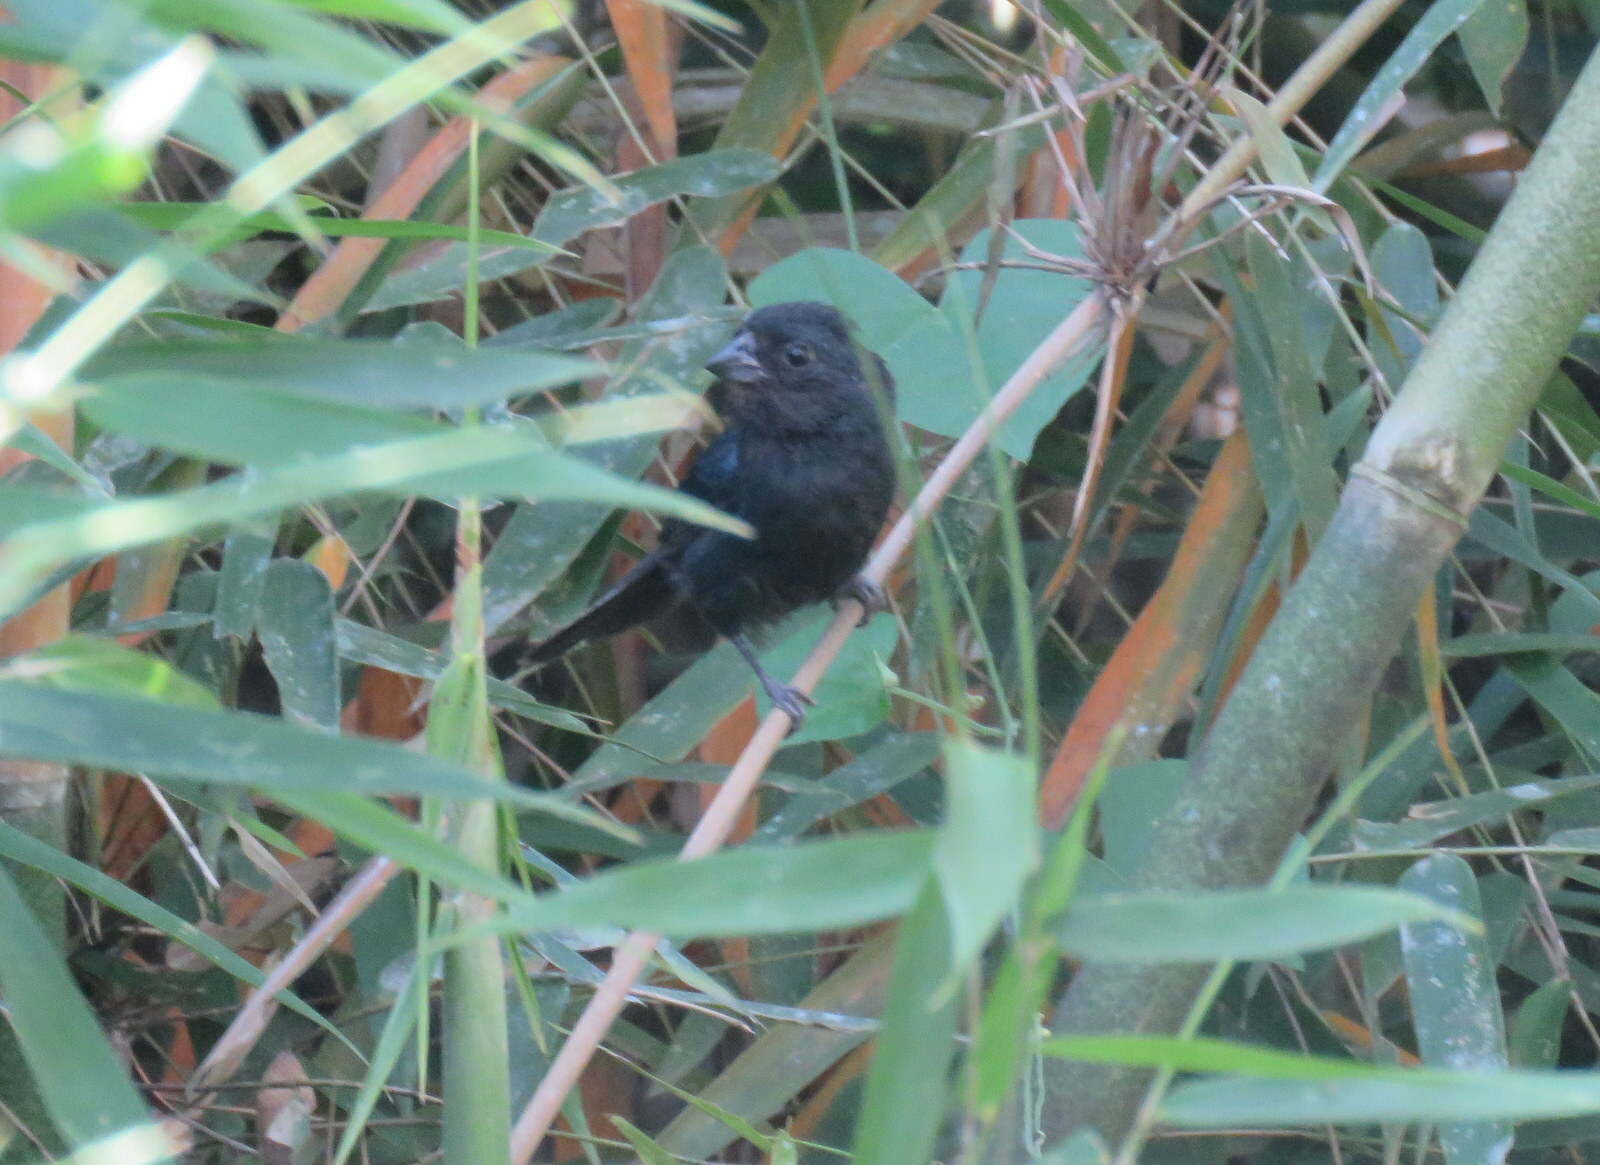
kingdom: Animalia
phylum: Chordata
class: Aves
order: Passeriformes
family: Cardinalidae
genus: Amaurospiza
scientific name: Amaurospiza moesta
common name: Blackish-blue seedeater
